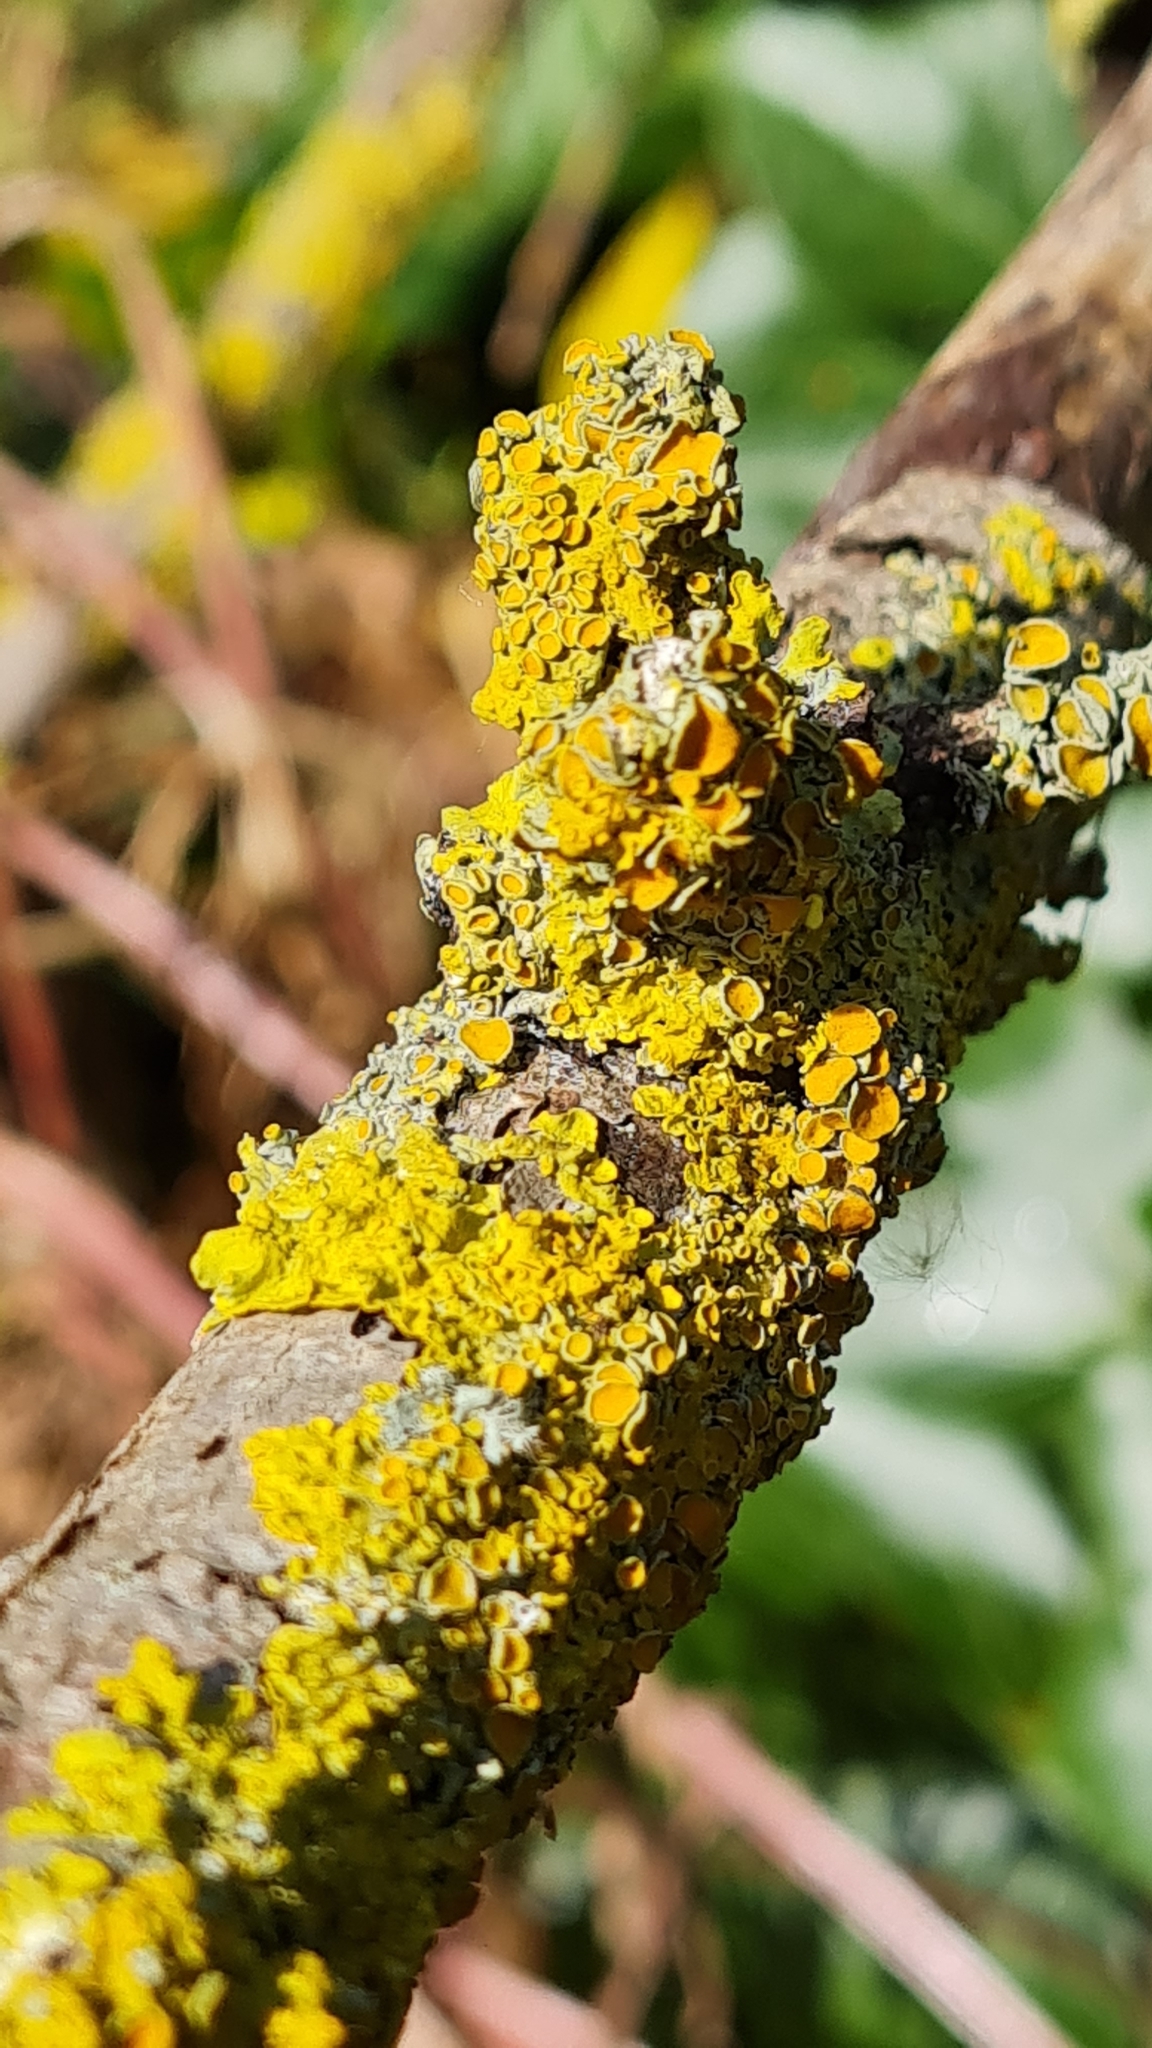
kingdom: Fungi
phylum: Ascomycota
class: Lecanoromycetes
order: Teloschistales
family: Teloschistaceae
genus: Xanthoria
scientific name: Xanthoria parietina
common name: Common orange lichen
